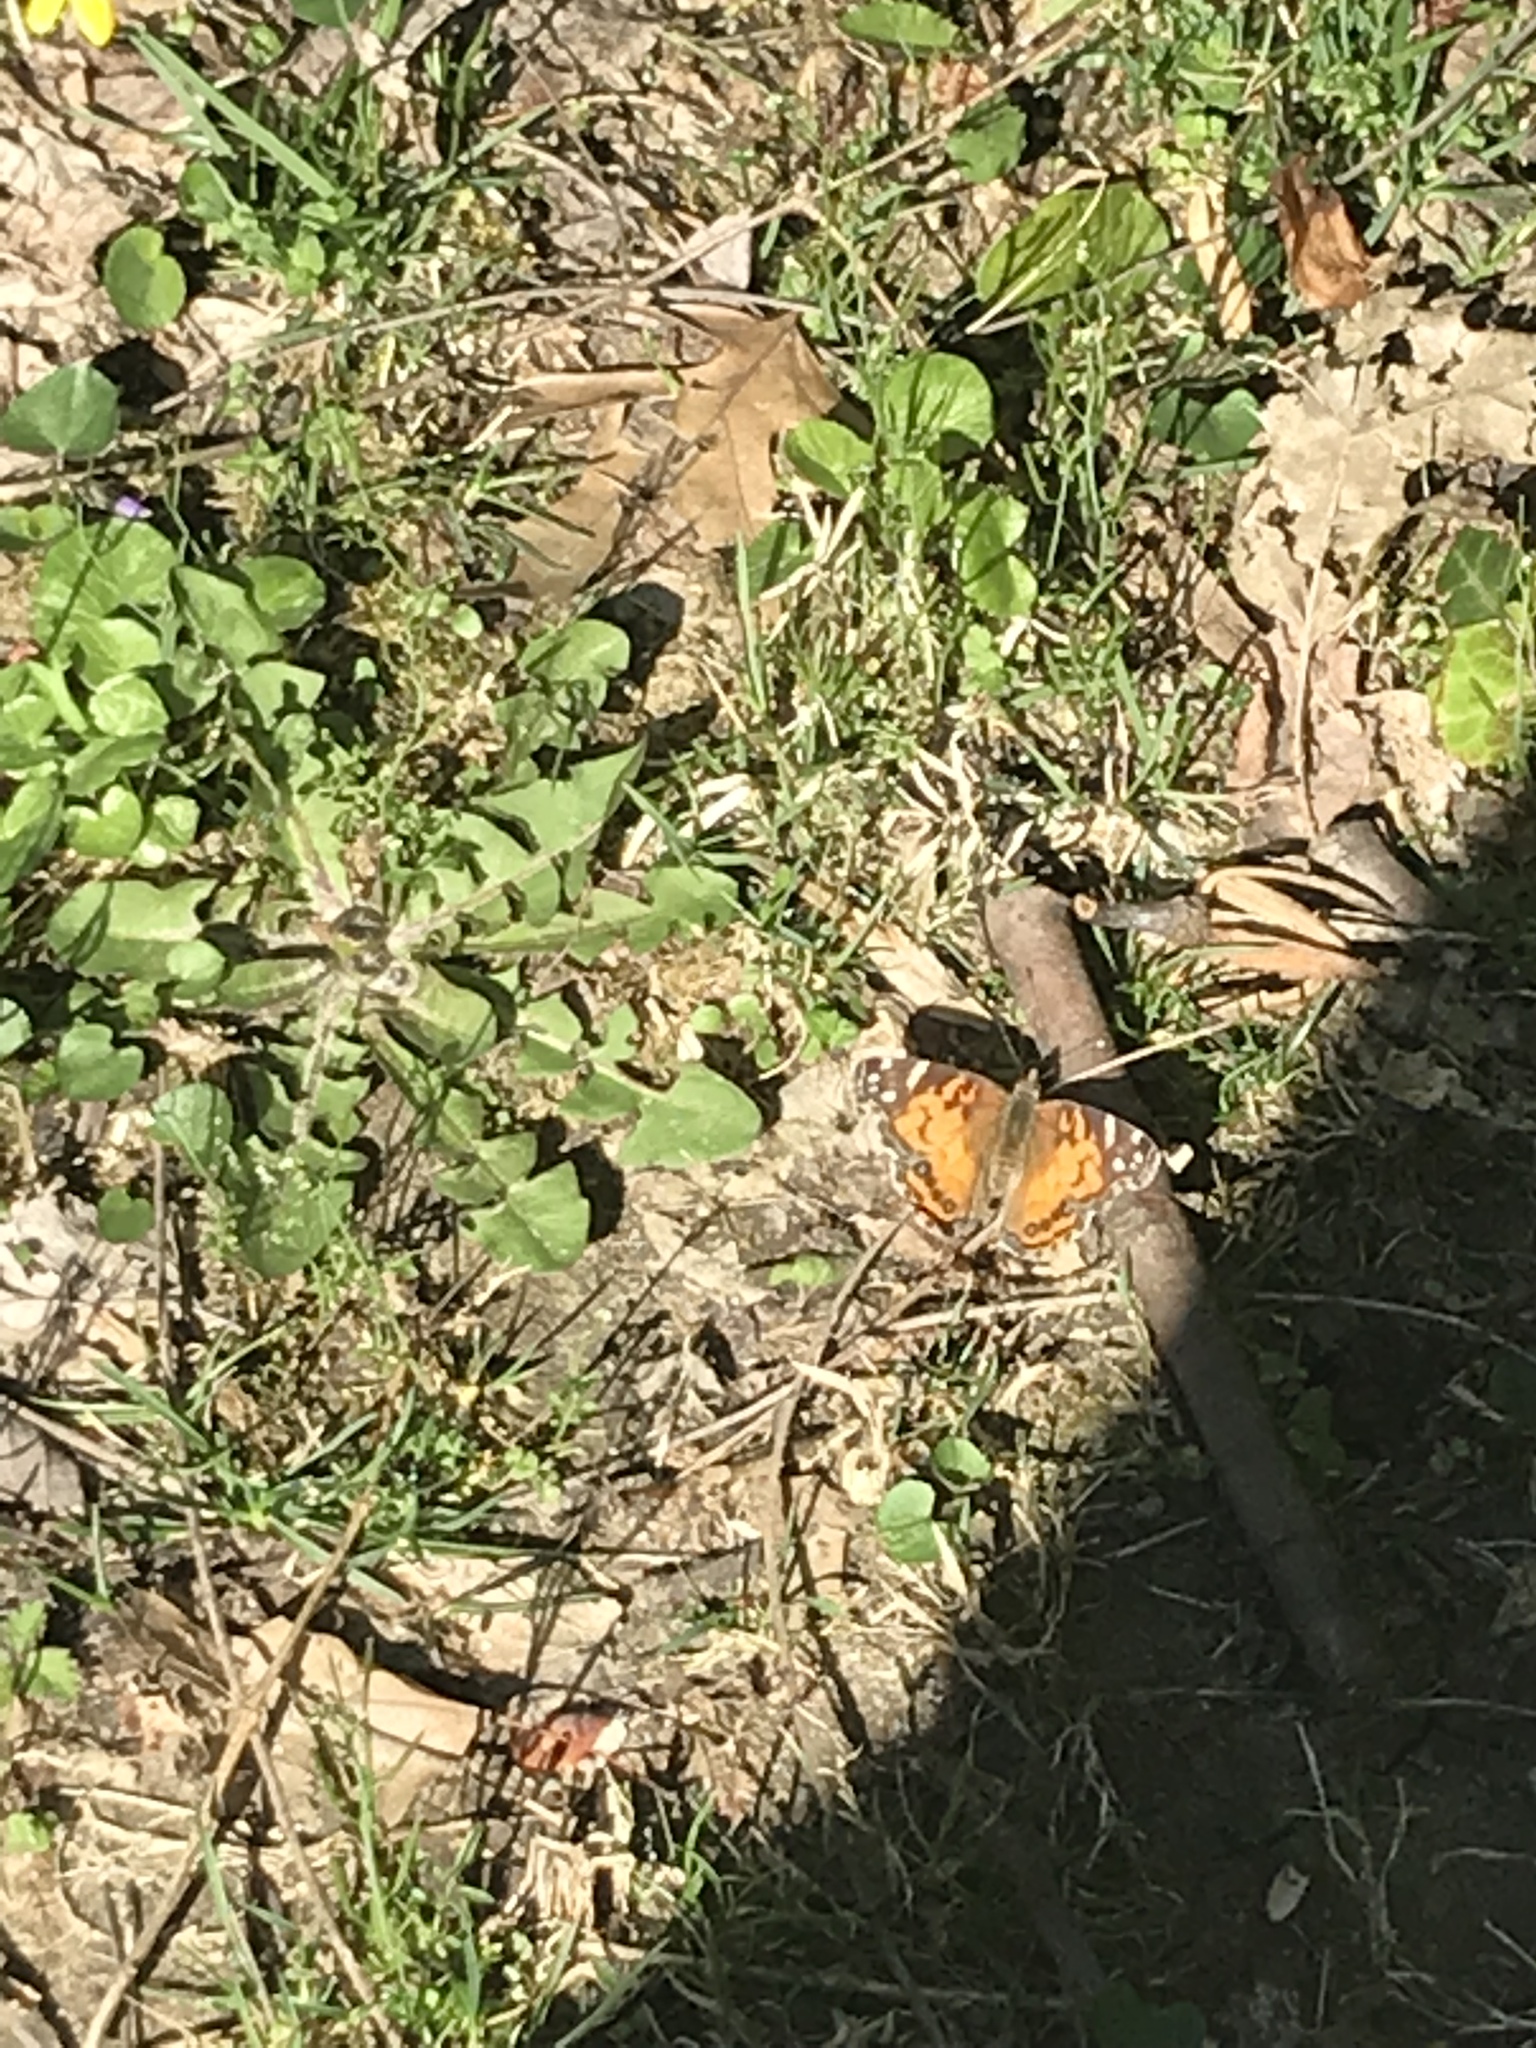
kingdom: Animalia
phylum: Arthropoda
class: Insecta
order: Lepidoptera
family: Nymphalidae
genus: Vanessa
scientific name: Vanessa virginiensis
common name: American lady
